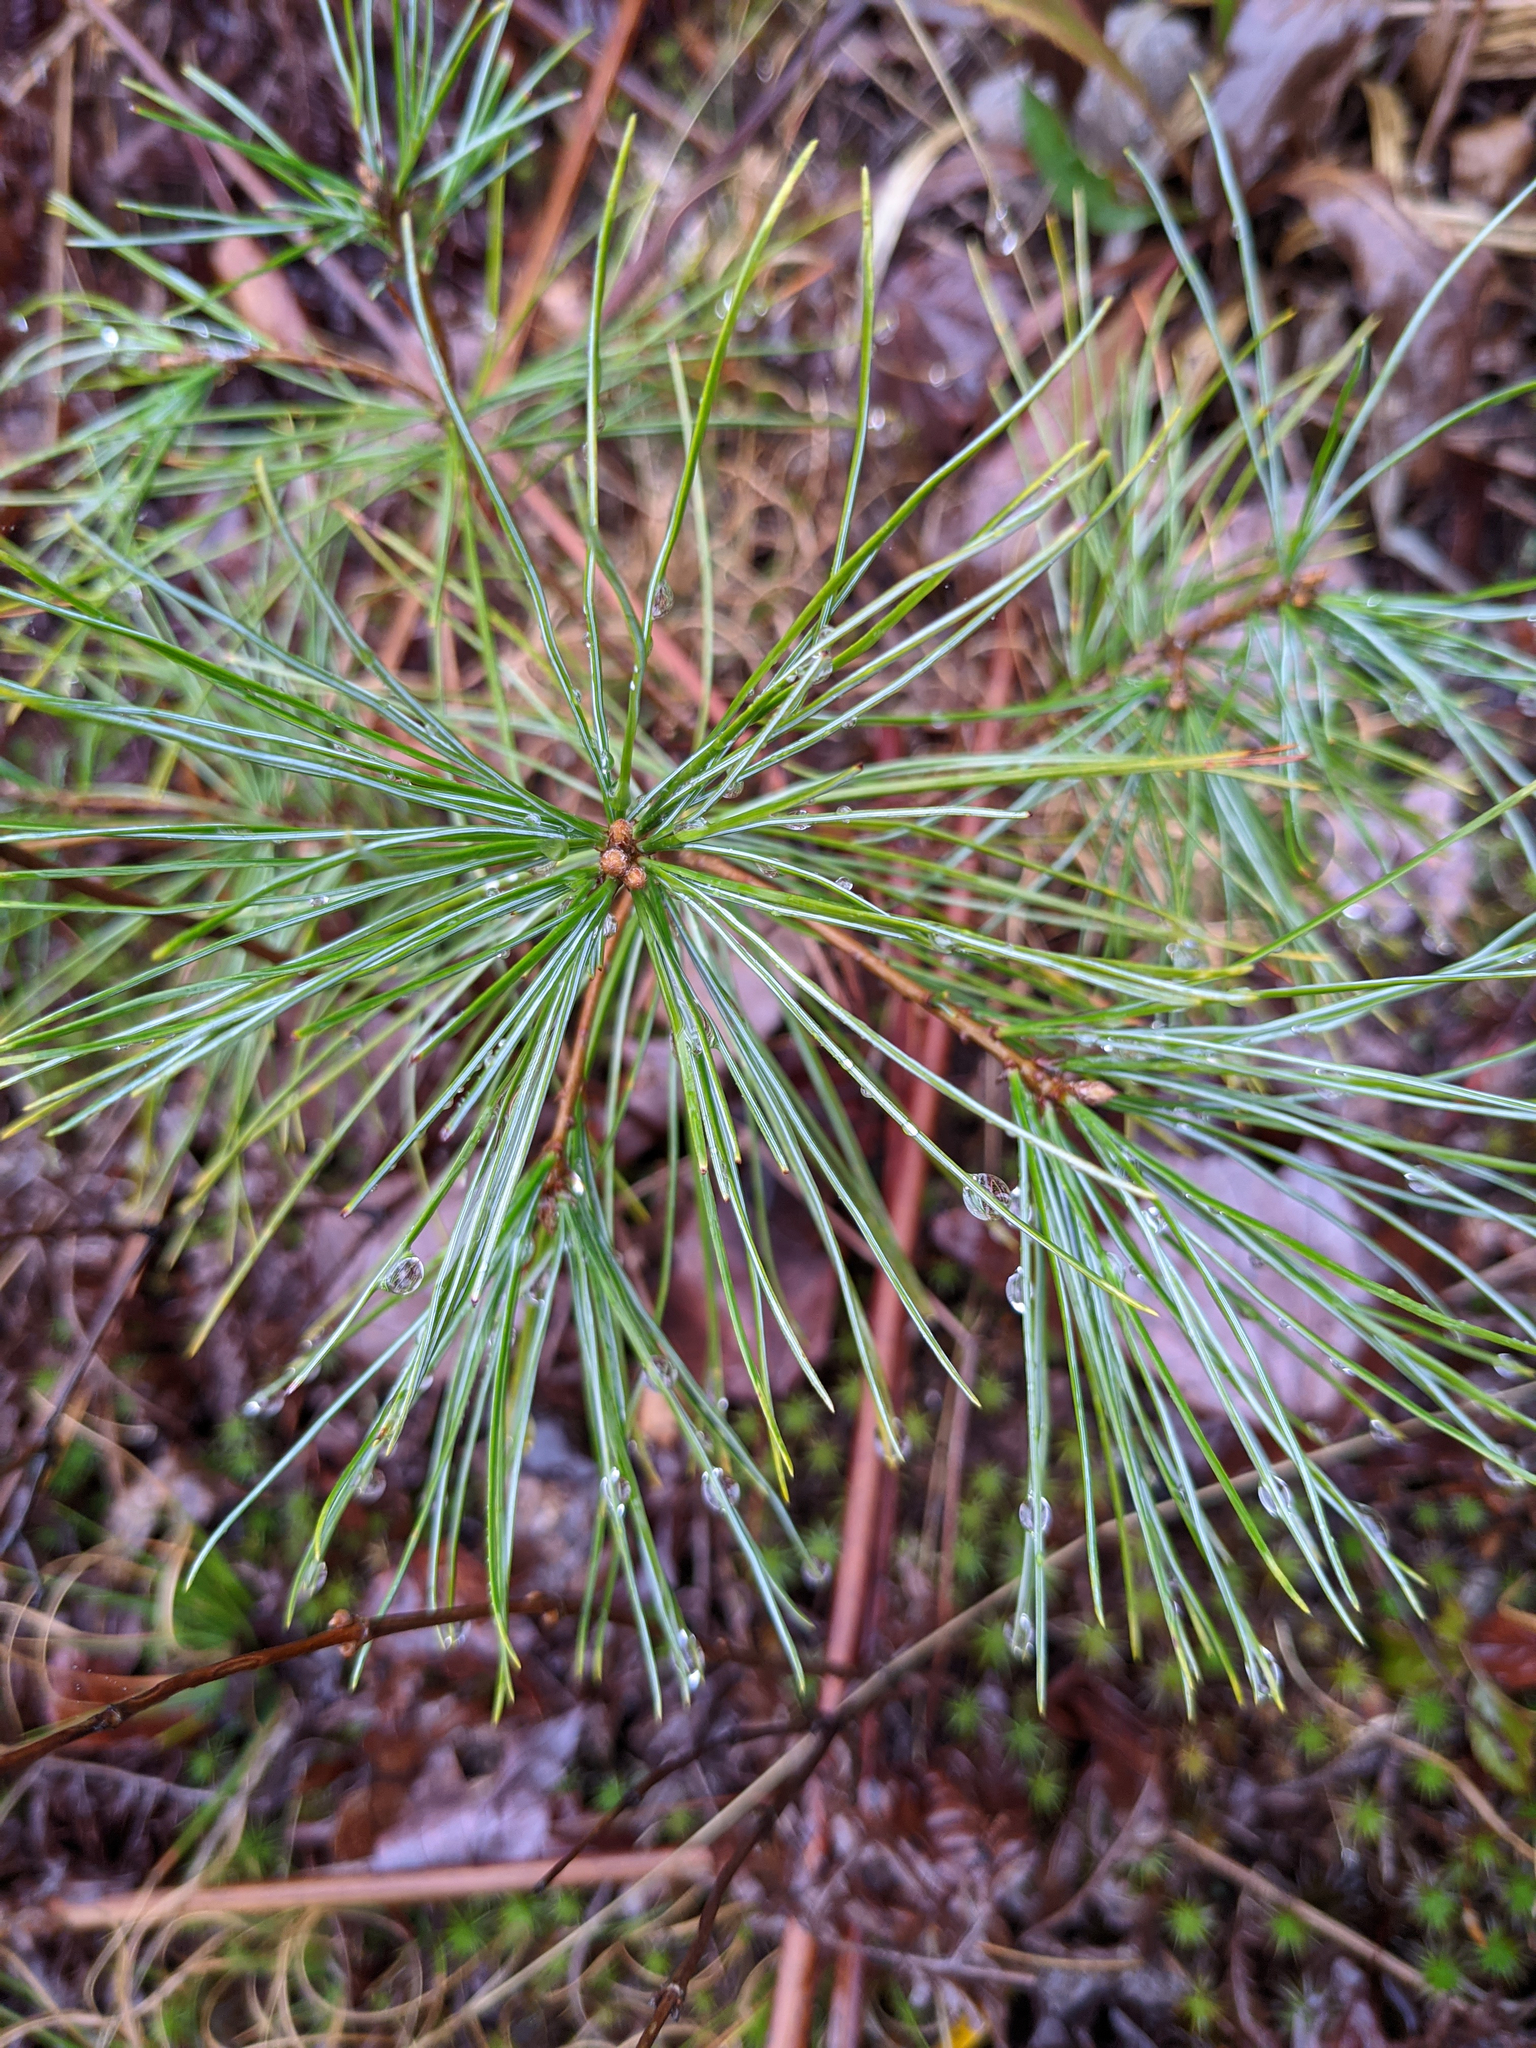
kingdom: Plantae
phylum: Tracheophyta
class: Pinopsida
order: Pinales
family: Pinaceae
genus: Pinus
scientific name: Pinus strobus
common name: Weymouth pine
